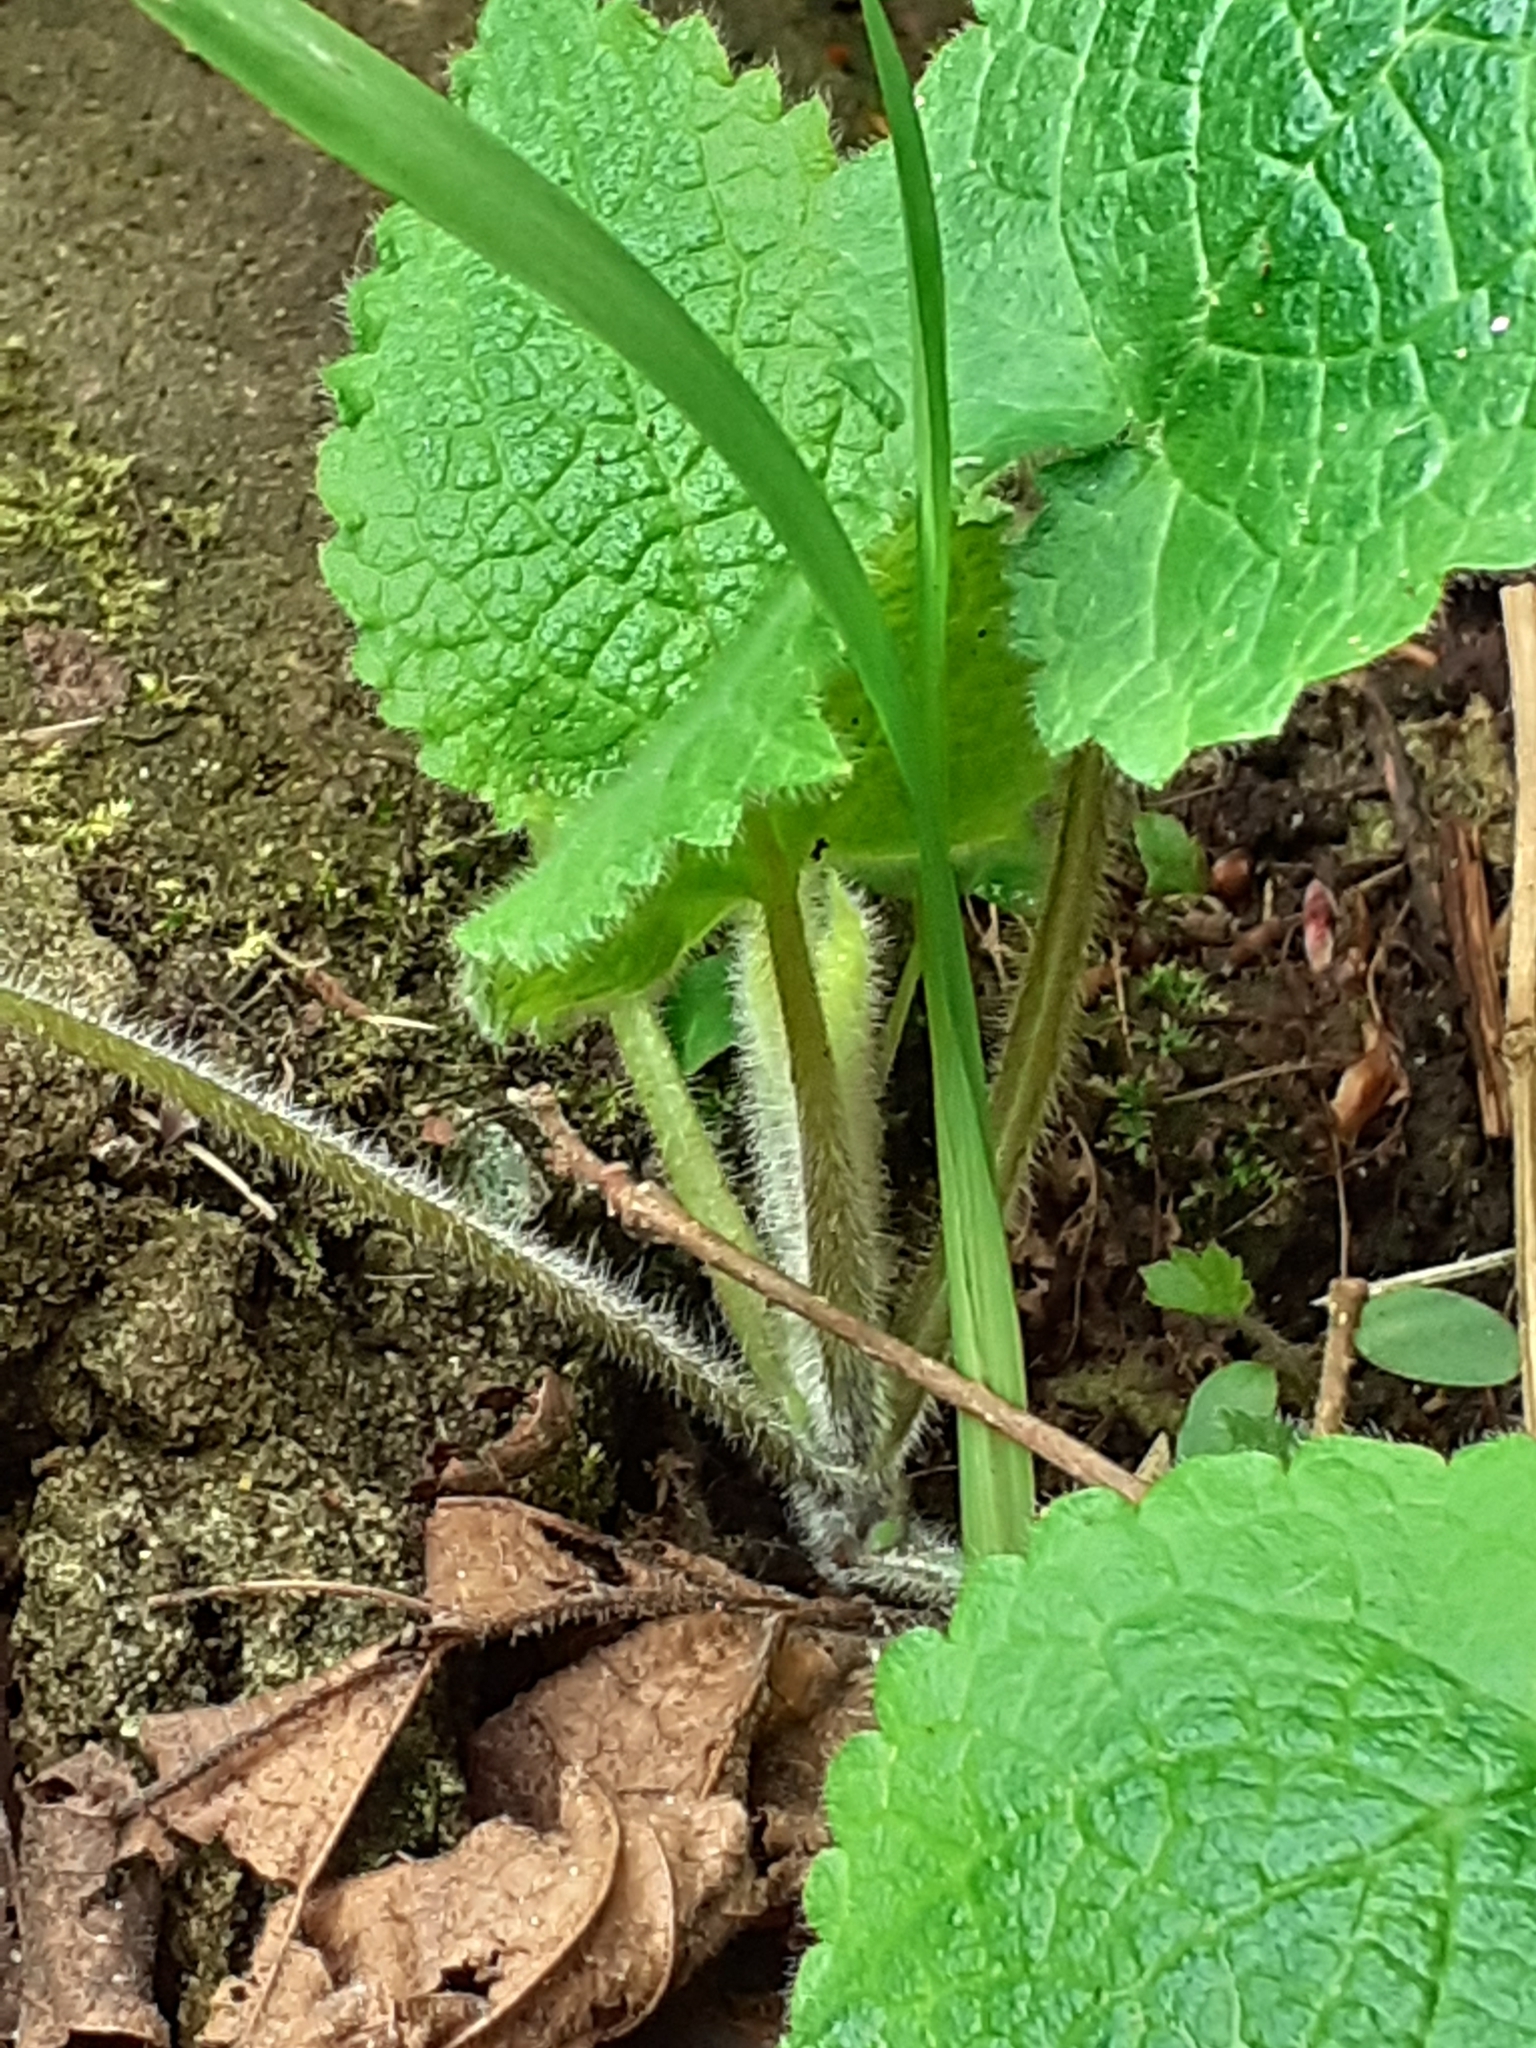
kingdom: Plantae
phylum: Tracheophyta
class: Magnoliopsida
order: Lamiales
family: Lamiaceae
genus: Stachys
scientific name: Stachys sylvatica
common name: Hedge woundwort
